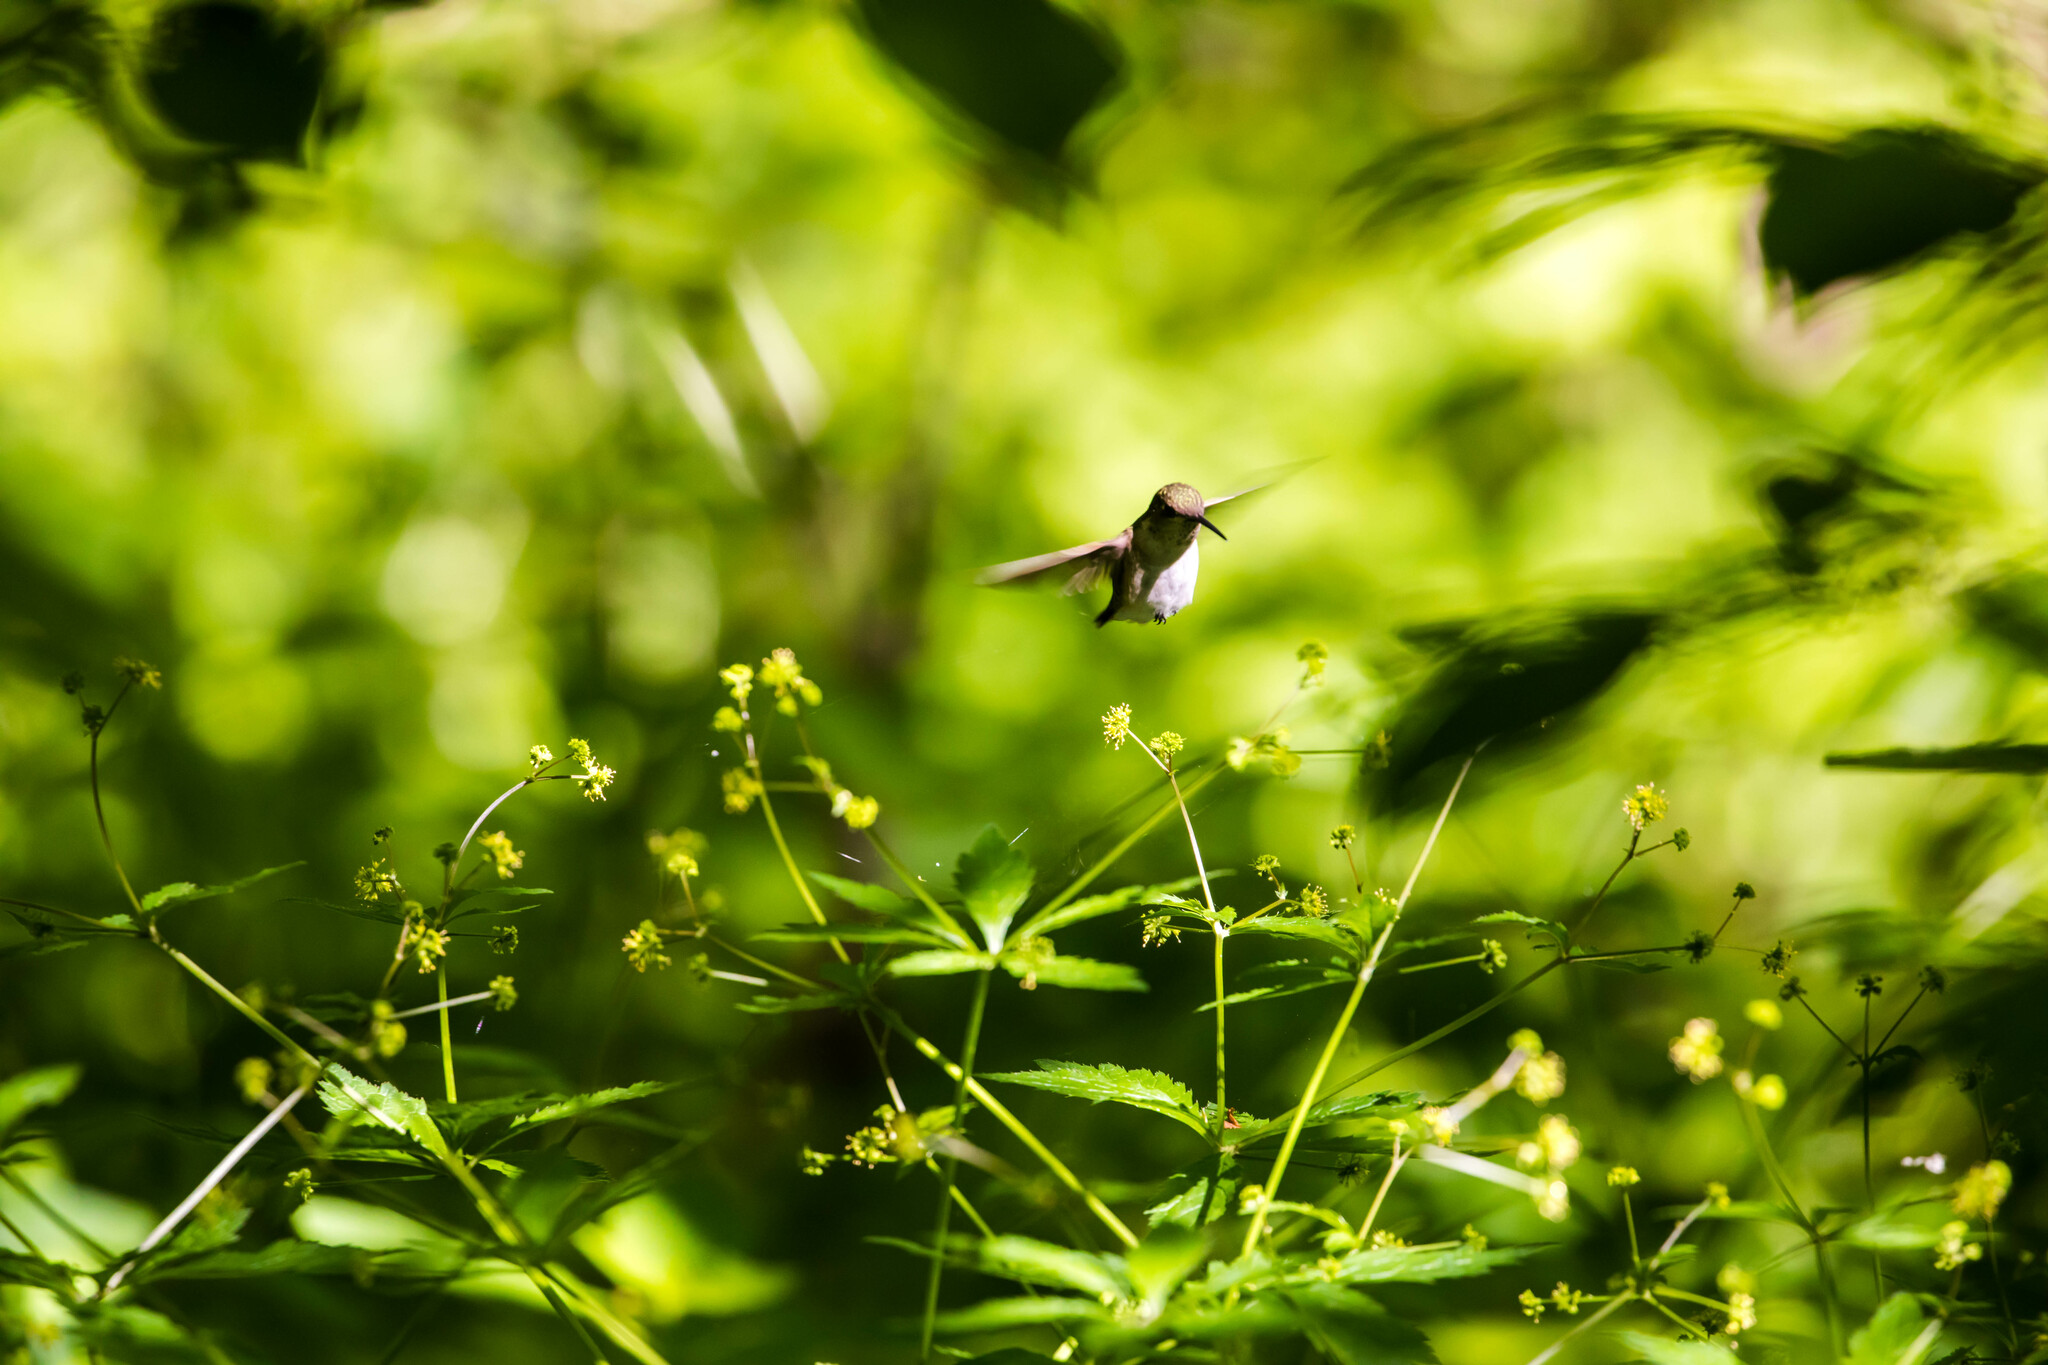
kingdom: Animalia
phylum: Chordata
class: Aves
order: Apodiformes
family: Trochilidae
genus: Archilochus
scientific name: Archilochus colubris
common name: Ruby-throated hummingbird
